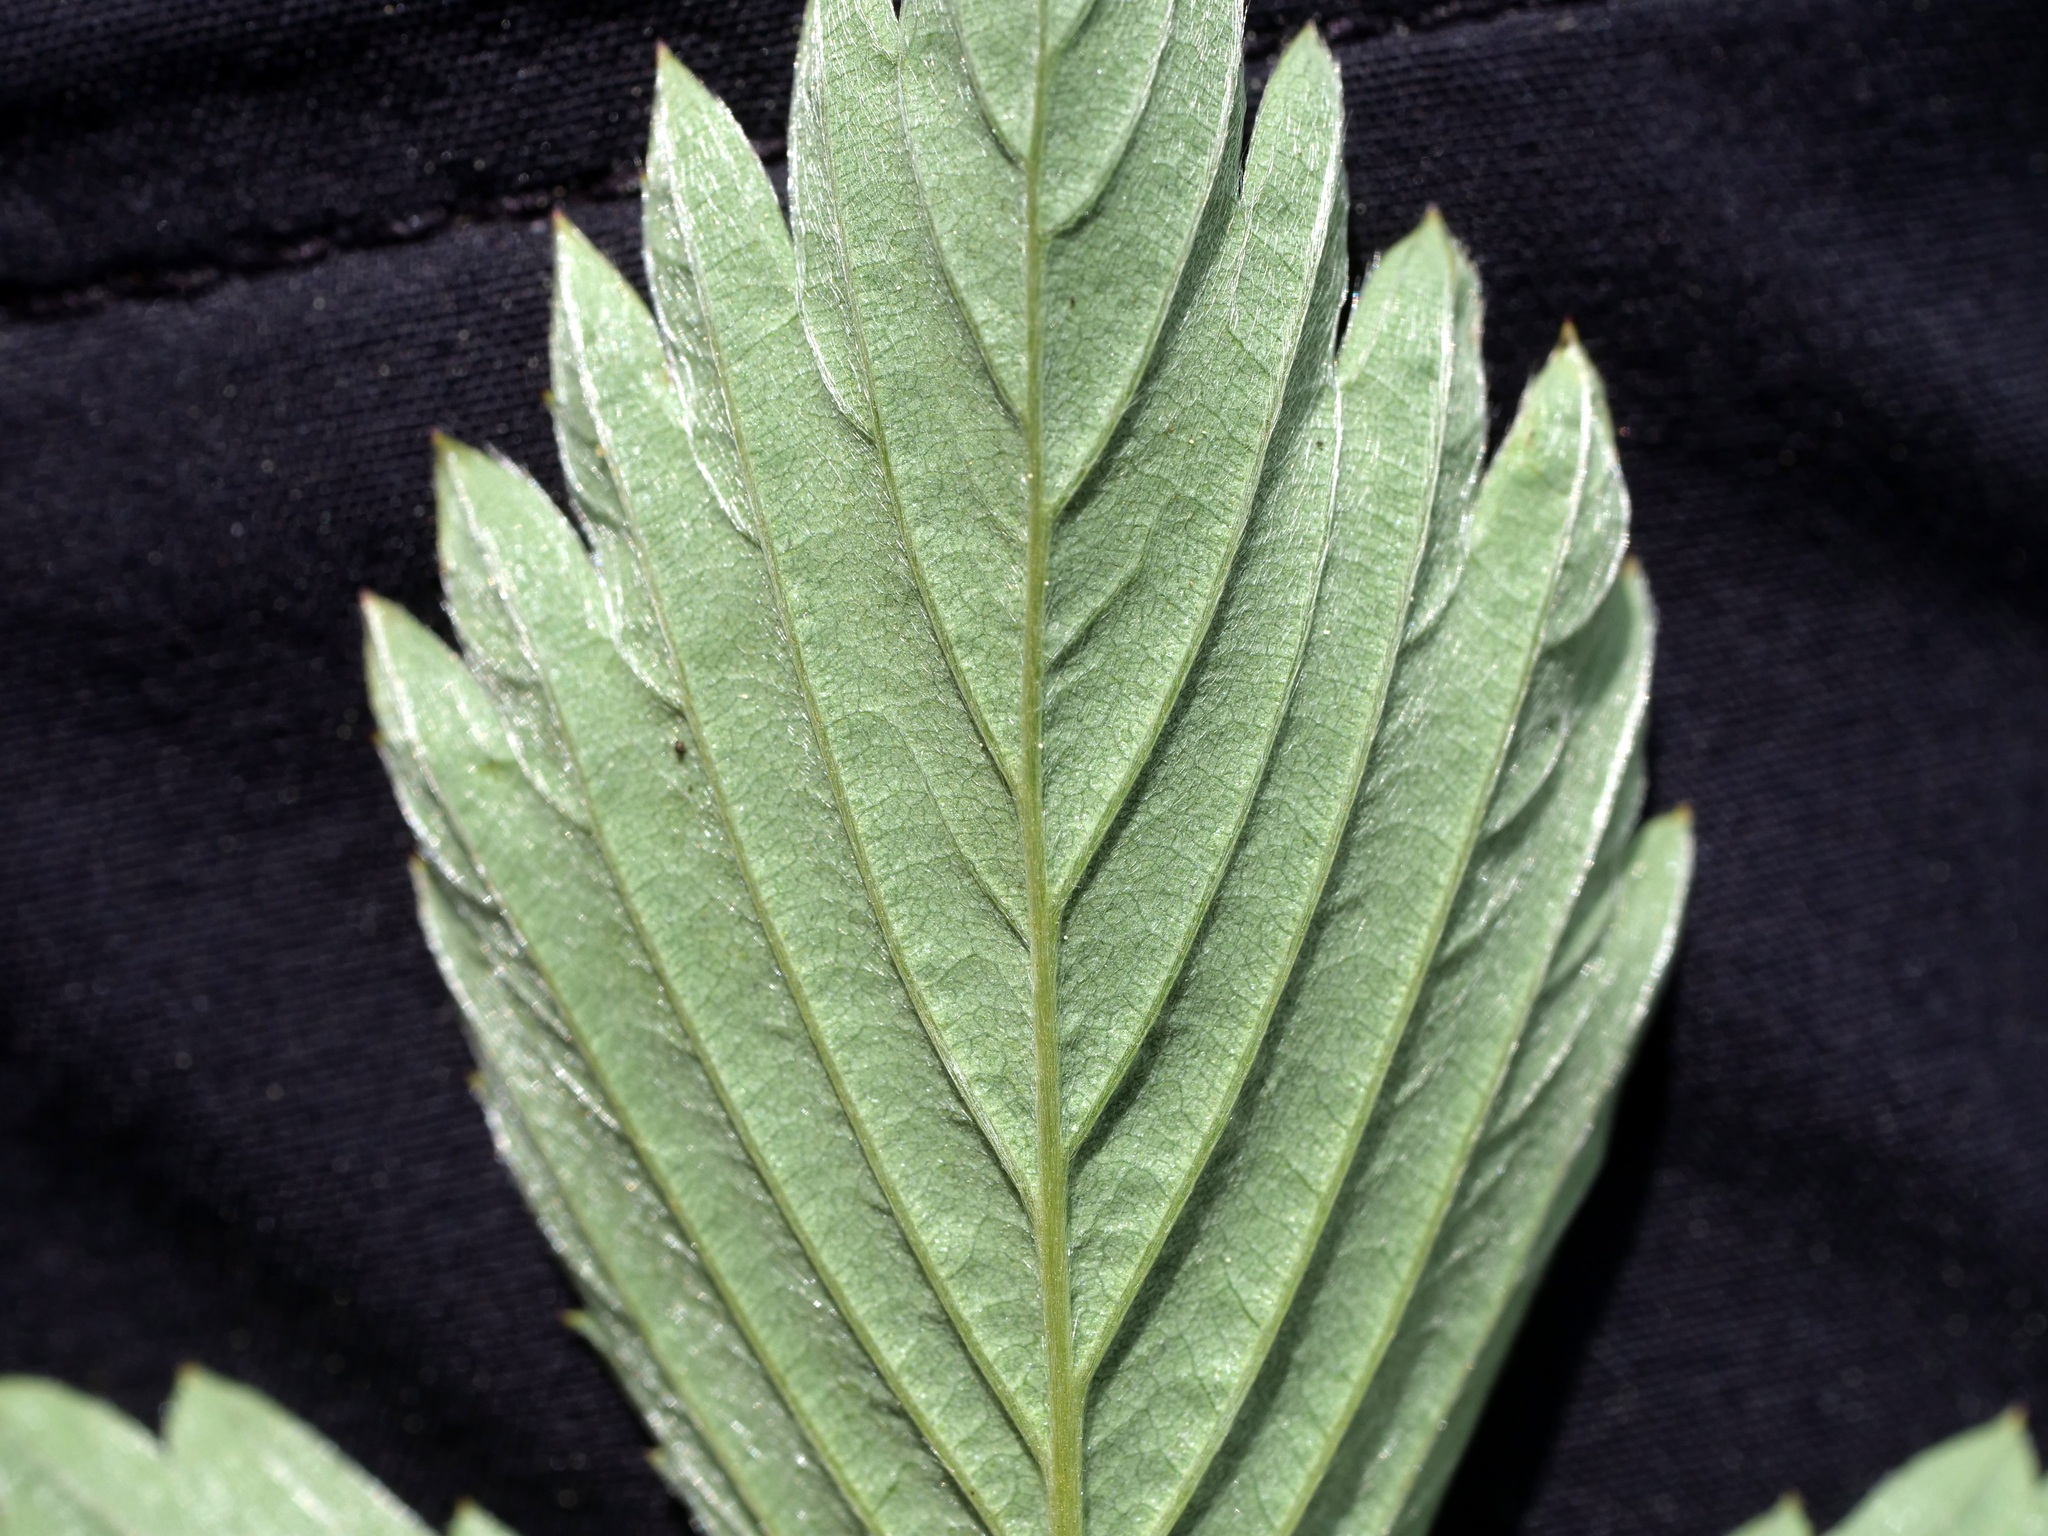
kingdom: Plantae
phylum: Tracheophyta
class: Magnoliopsida
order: Rosales
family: Rosaceae
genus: Fragaria
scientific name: Fragaria vesca
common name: Wild strawberry
